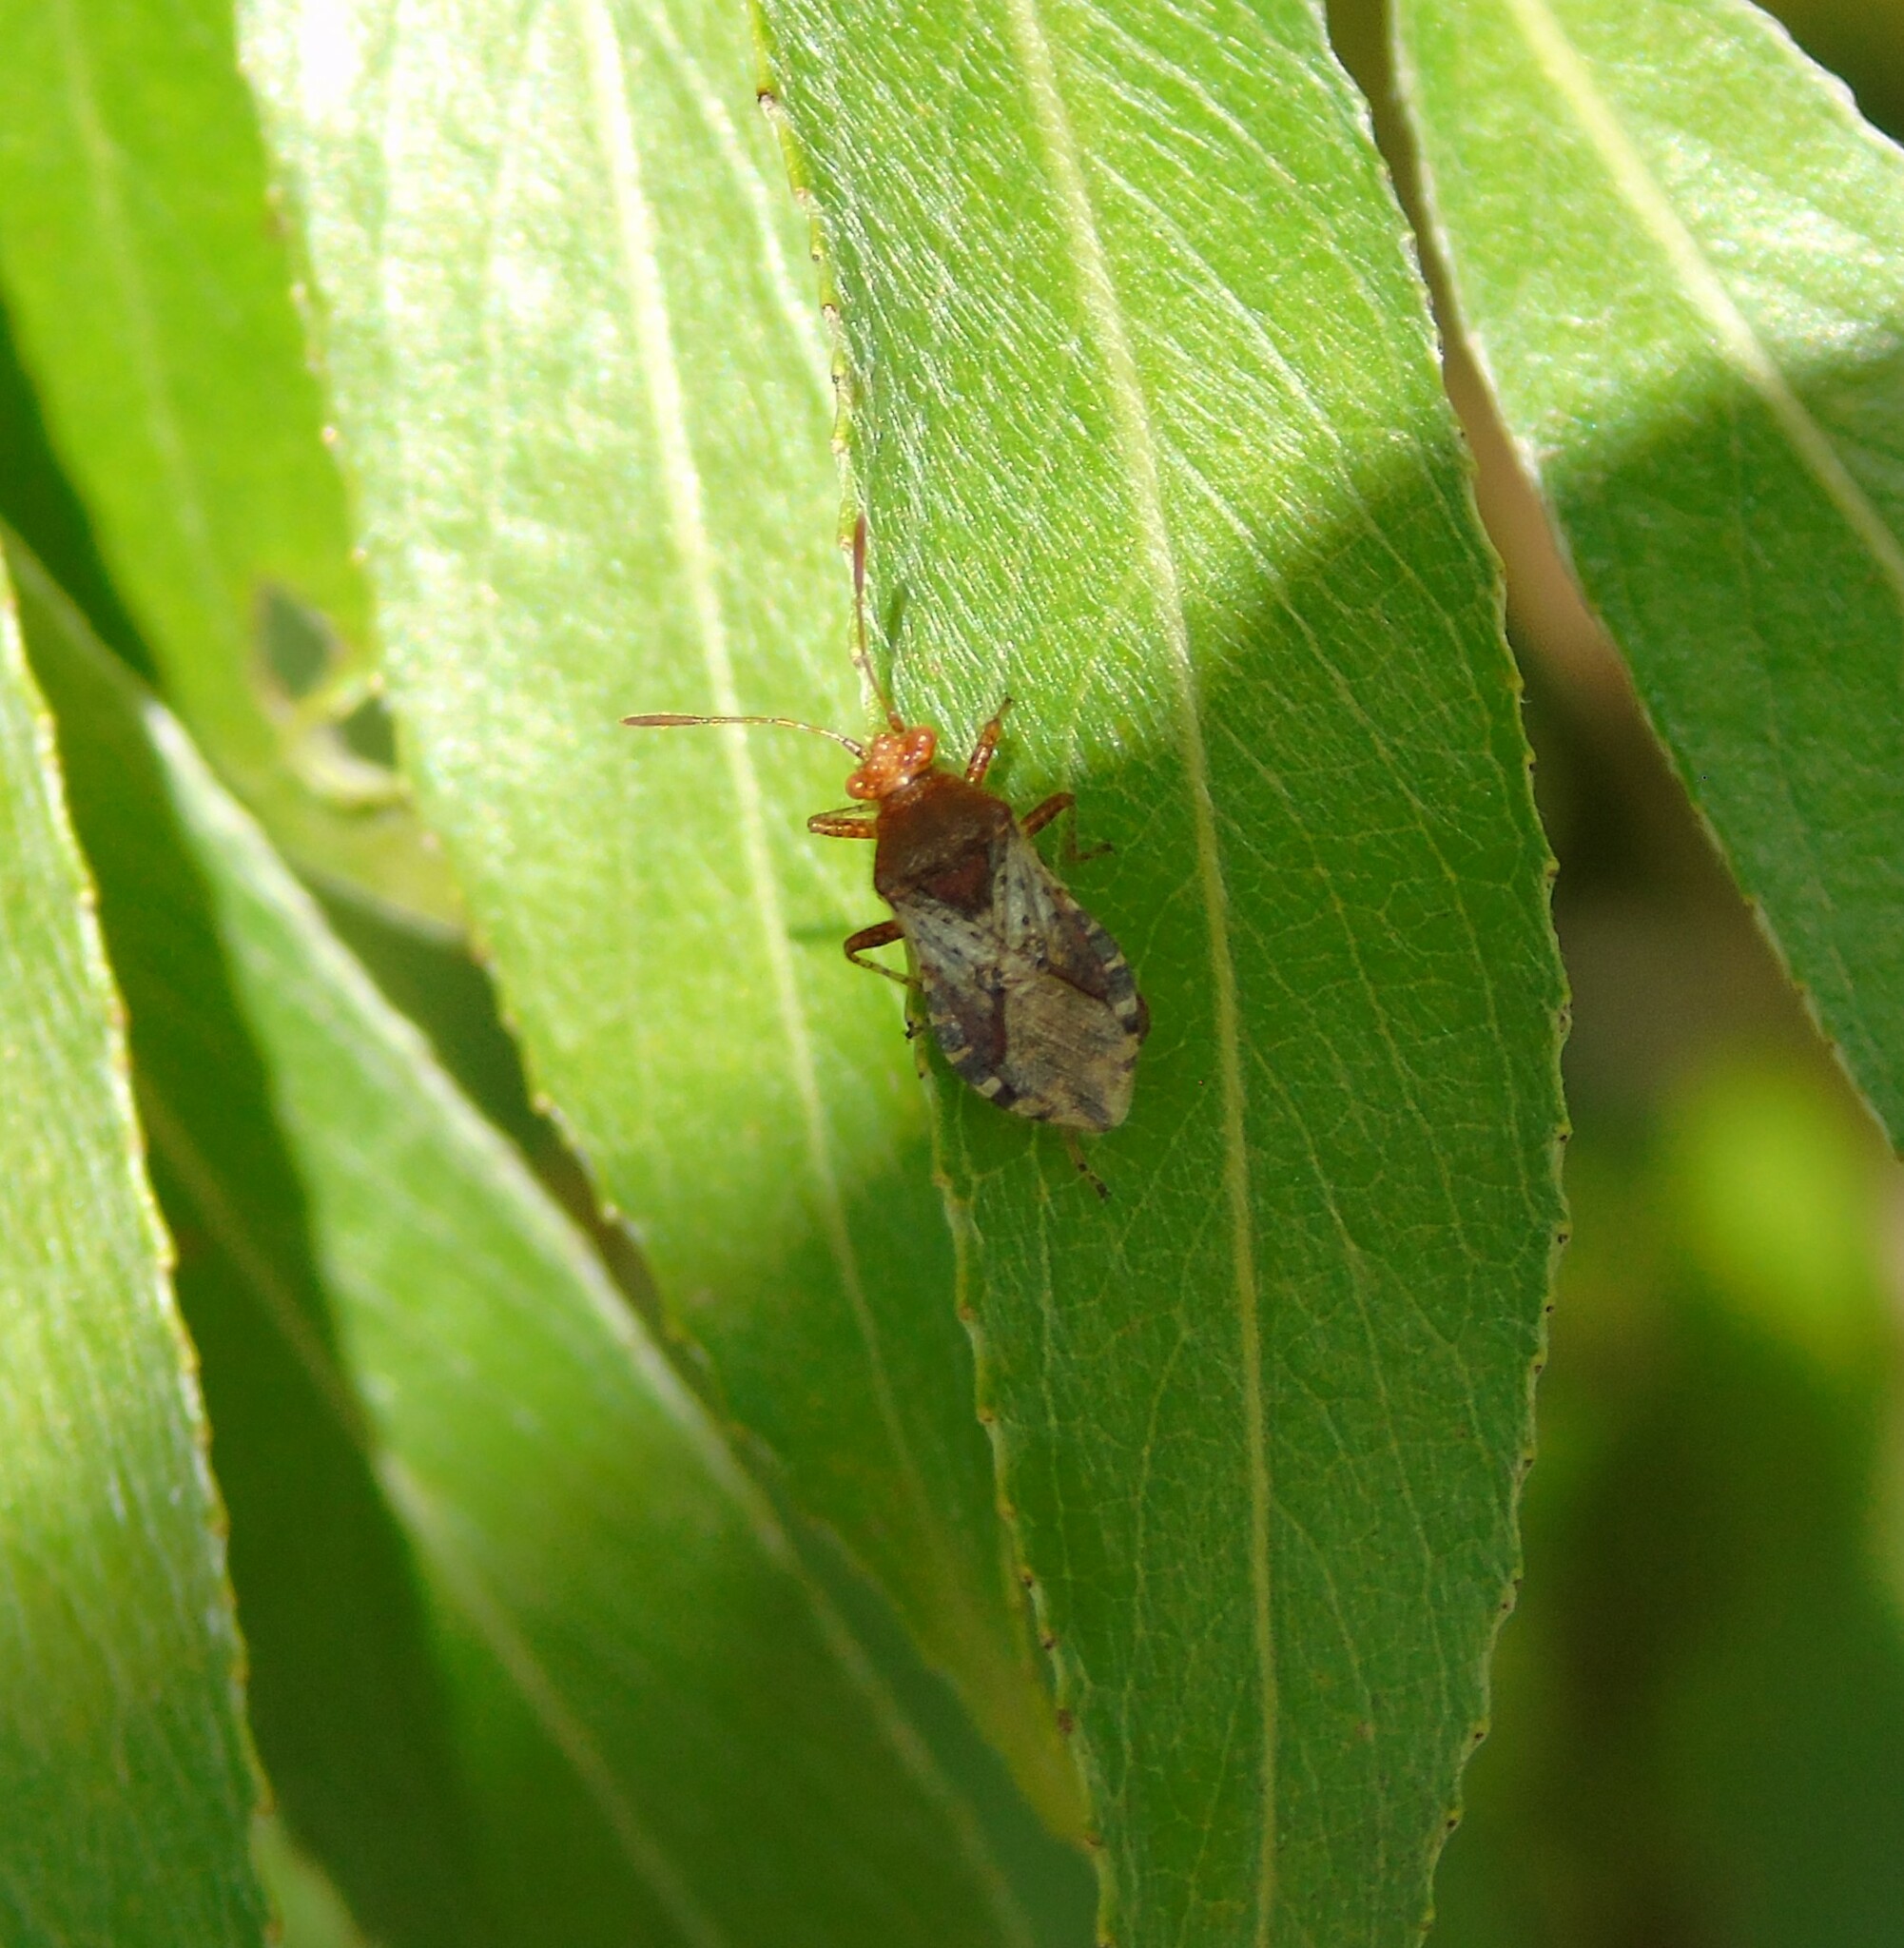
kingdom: Animalia
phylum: Arthropoda
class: Insecta
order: Hemiptera
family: Rhopalidae
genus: Rhopalus
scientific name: Rhopalus subrufus
